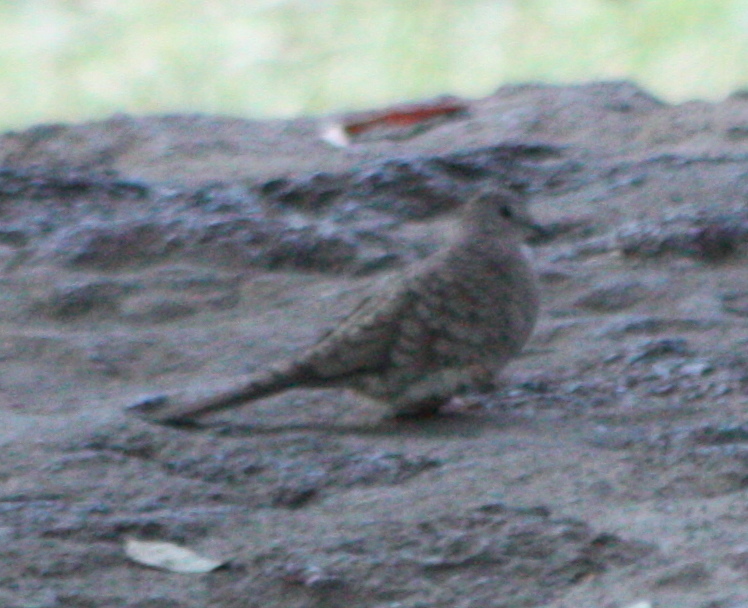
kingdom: Animalia
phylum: Chordata
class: Aves
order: Columbiformes
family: Columbidae
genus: Columbina
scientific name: Columbina inca
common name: Inca dove
